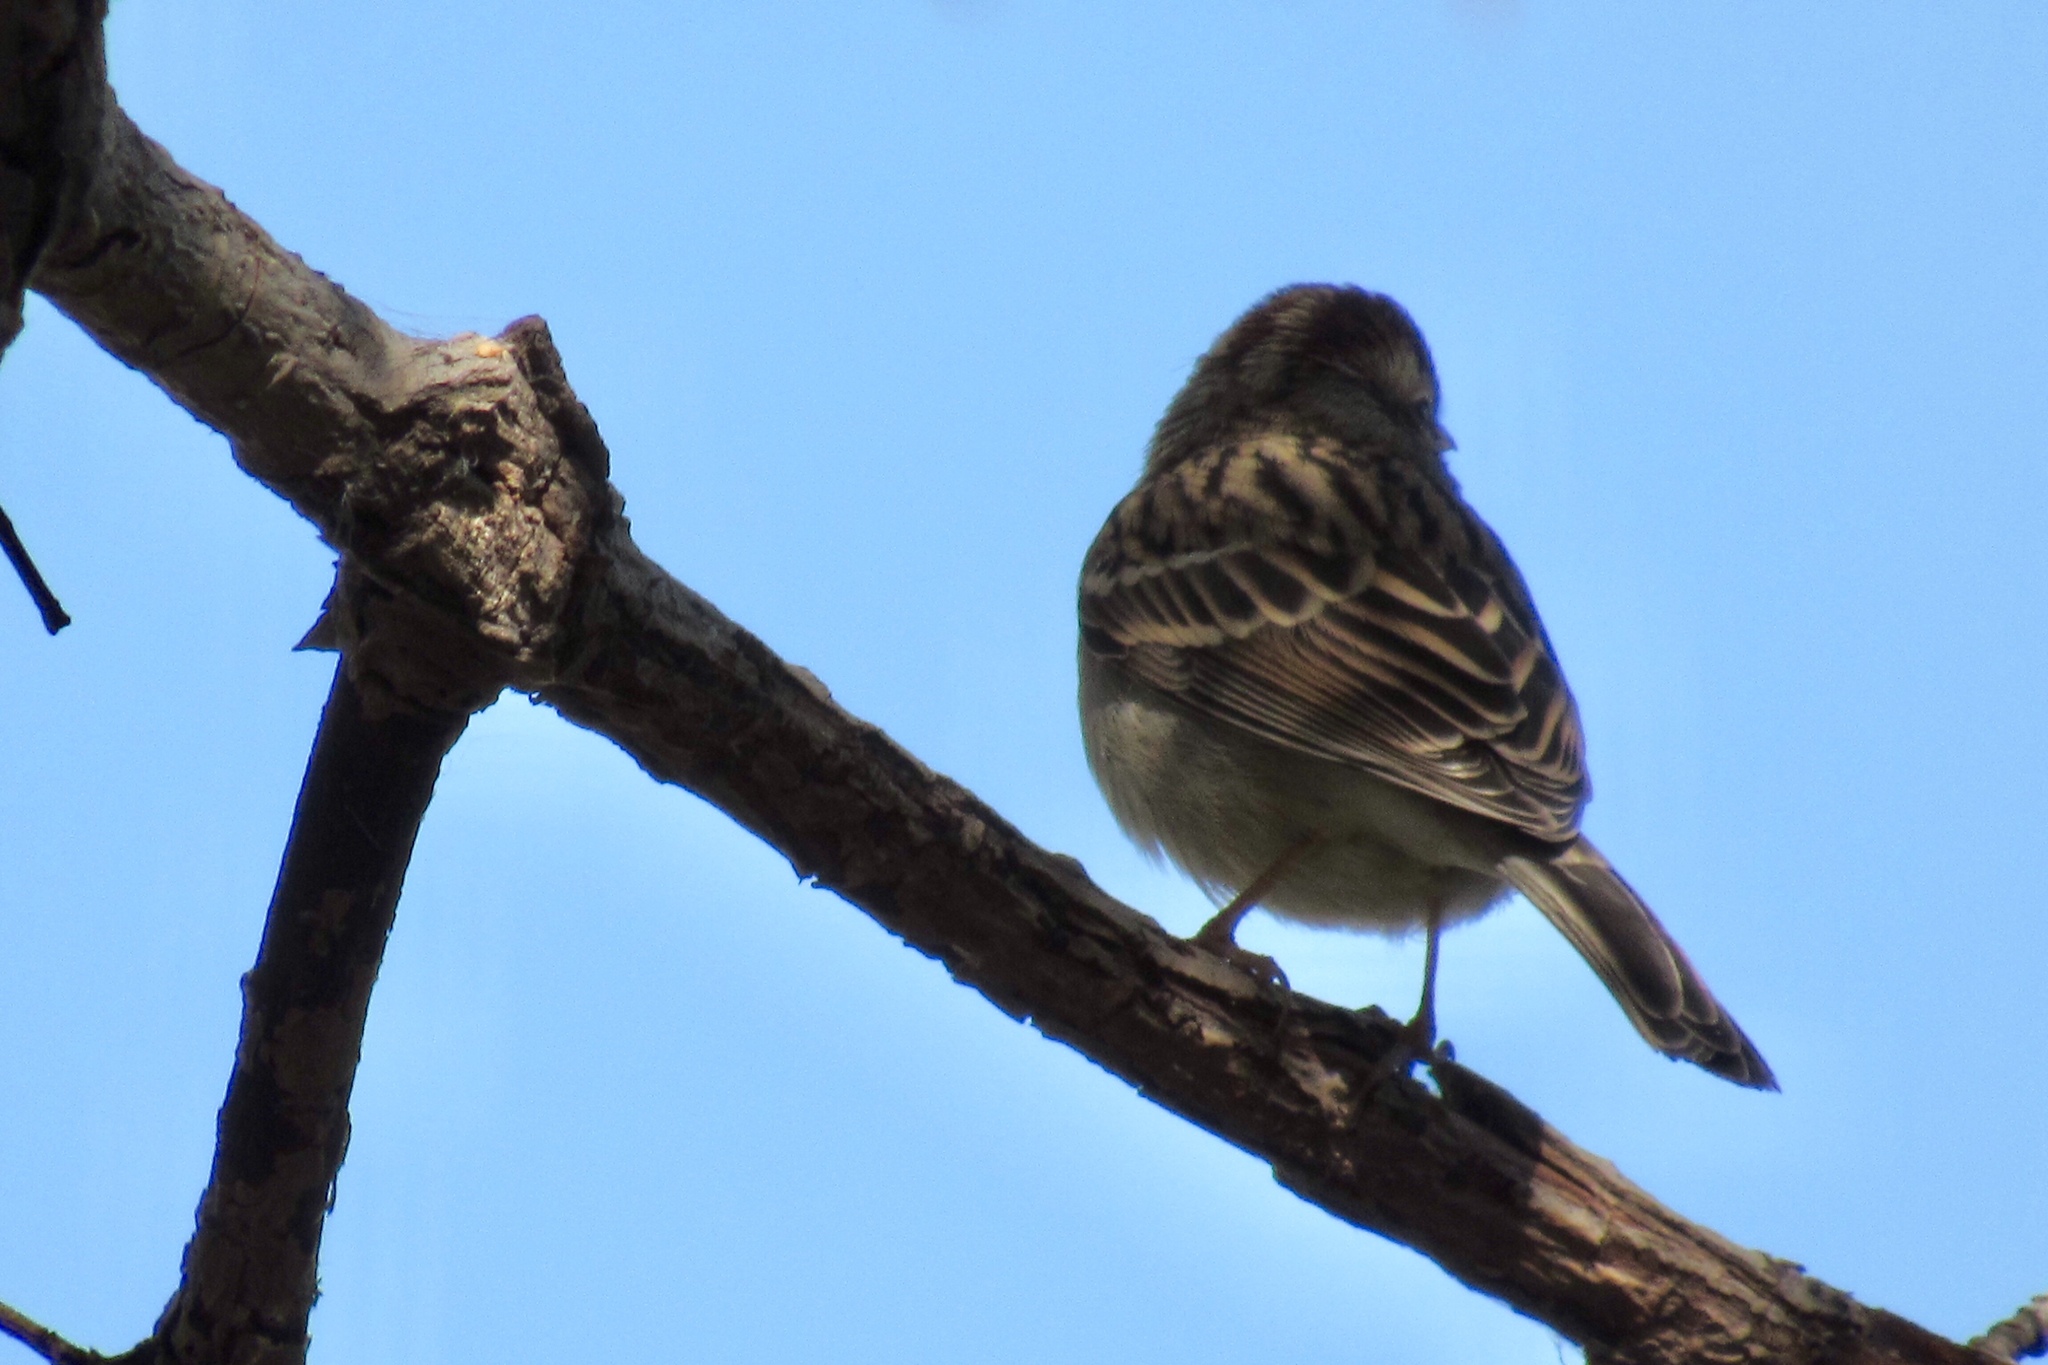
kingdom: Animalia
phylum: Chordata
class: Aves
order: Passeriformes
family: Passerellidae
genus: Spizella
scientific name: Spizella passerina
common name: Chipping sparrow
